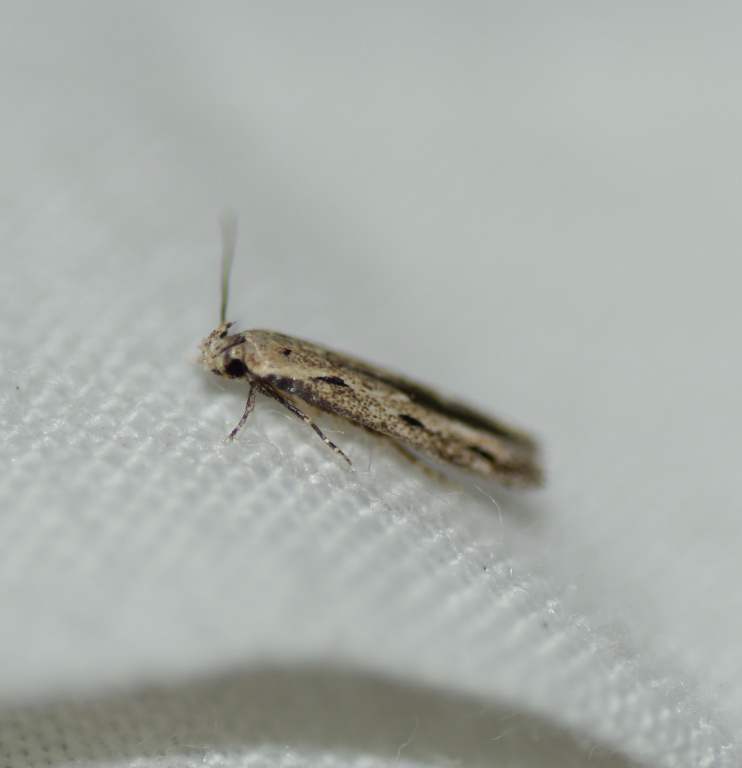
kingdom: Animalia
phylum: Arthropoda
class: Insecta
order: Lepidoptera
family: Momphidae
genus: Mompha
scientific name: Mompha brevivittella
